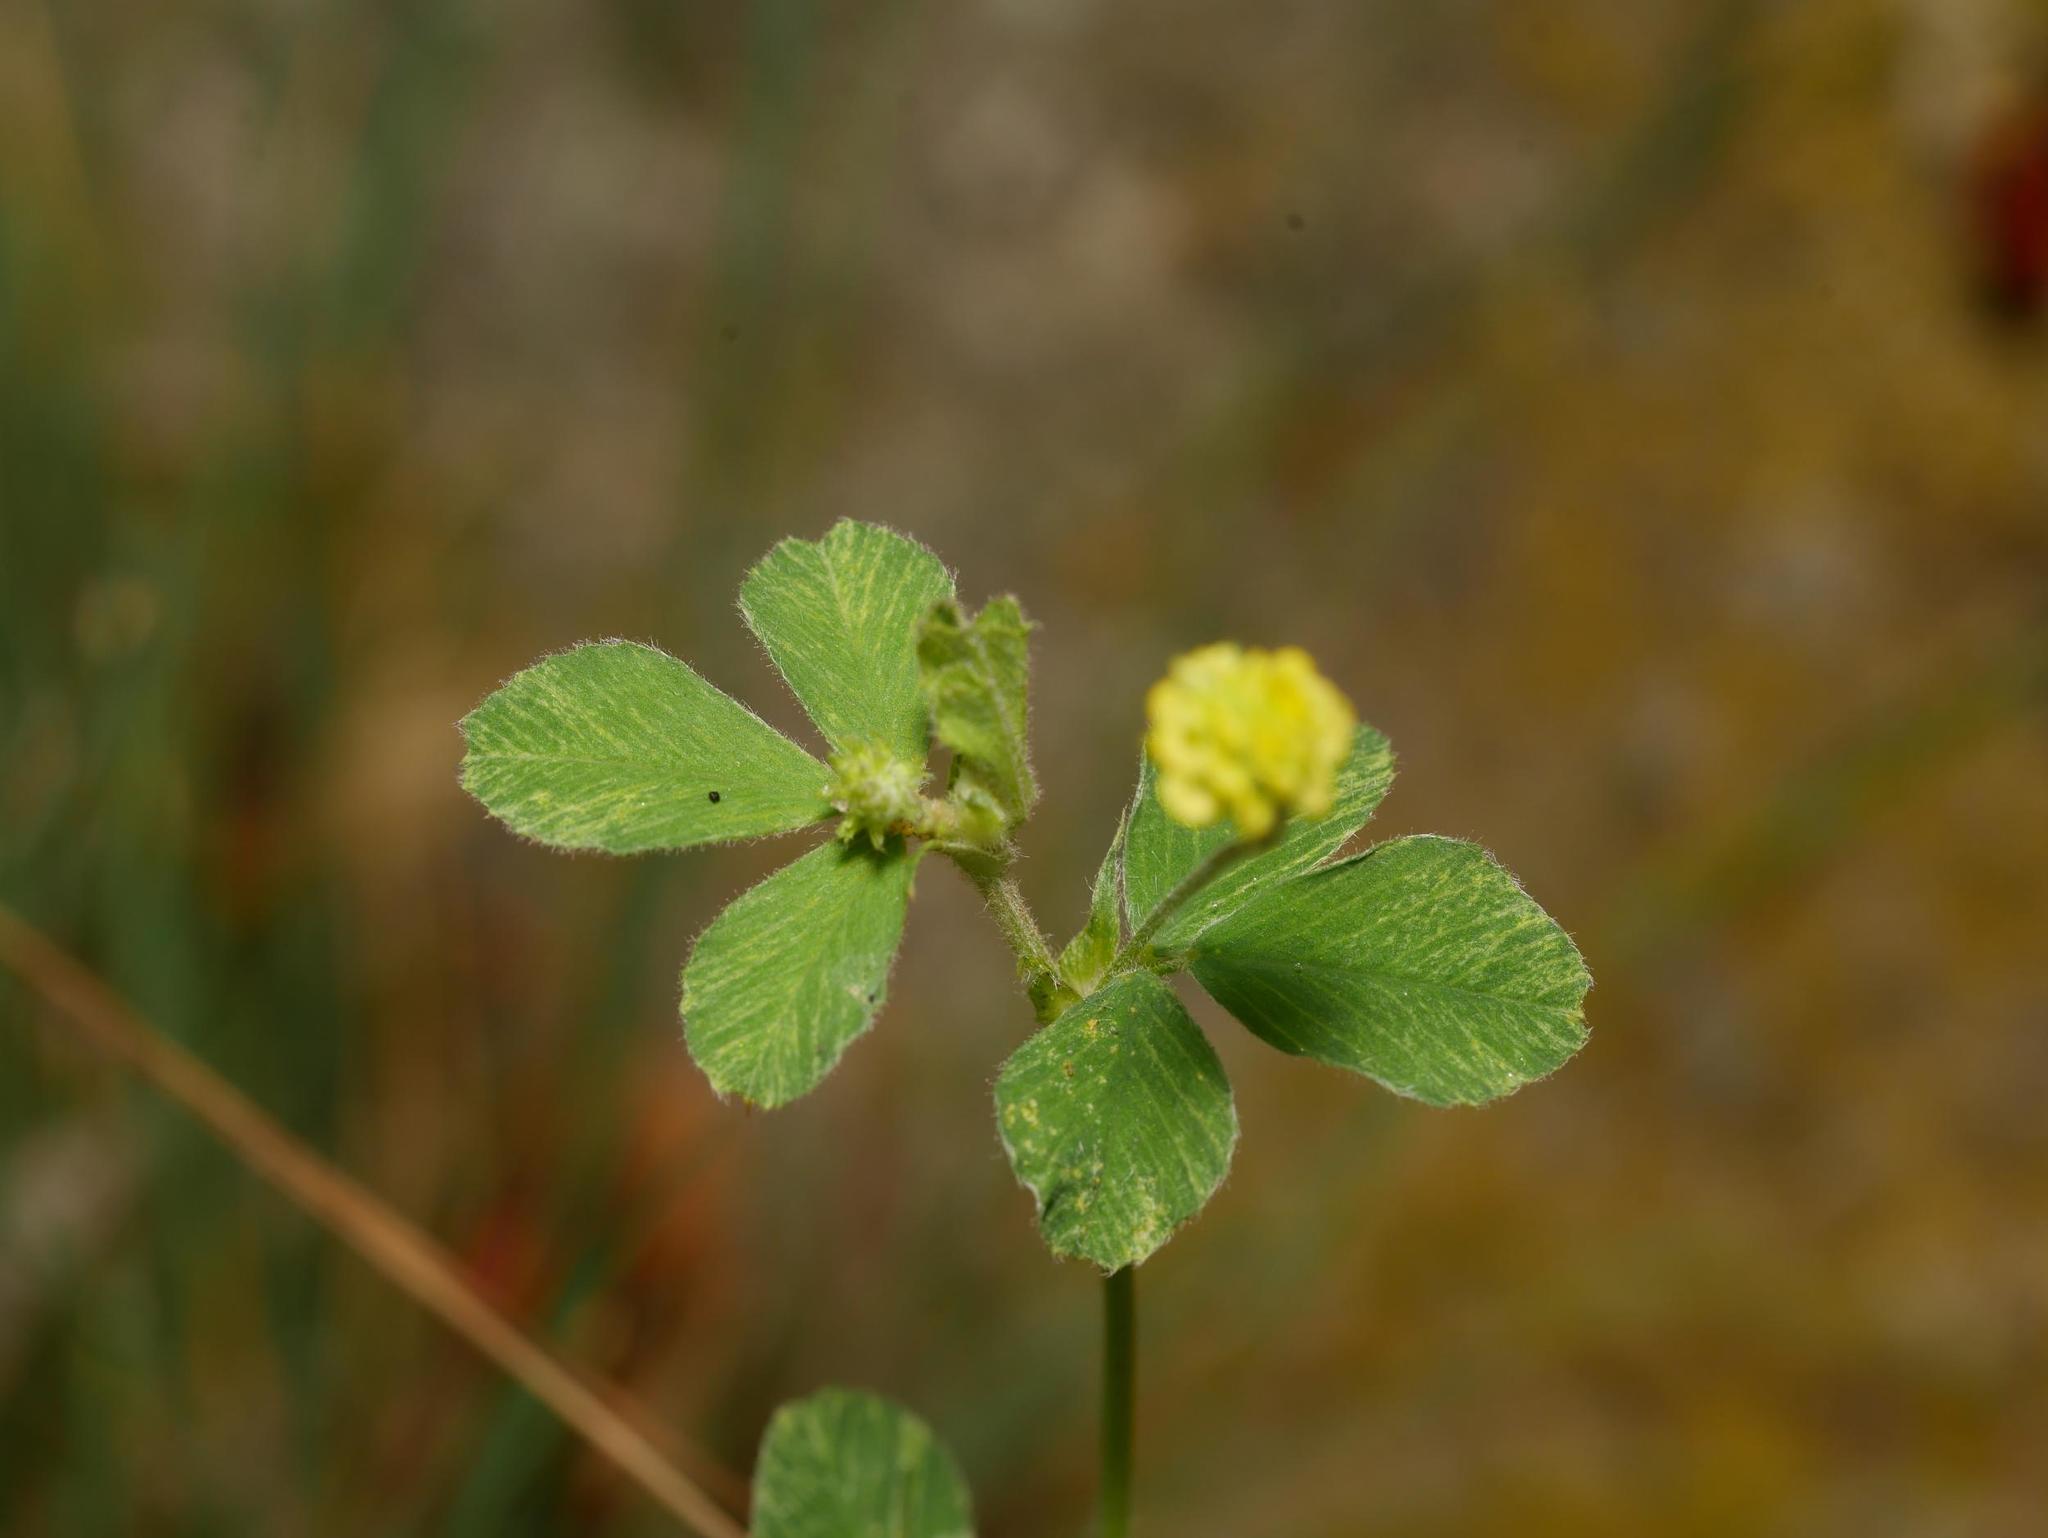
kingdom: Plantae
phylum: Tracheophyta
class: Magnoliopsida
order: Fabales
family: Fabaceae
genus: Medicago
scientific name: Medicago lupulina
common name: Black medick
